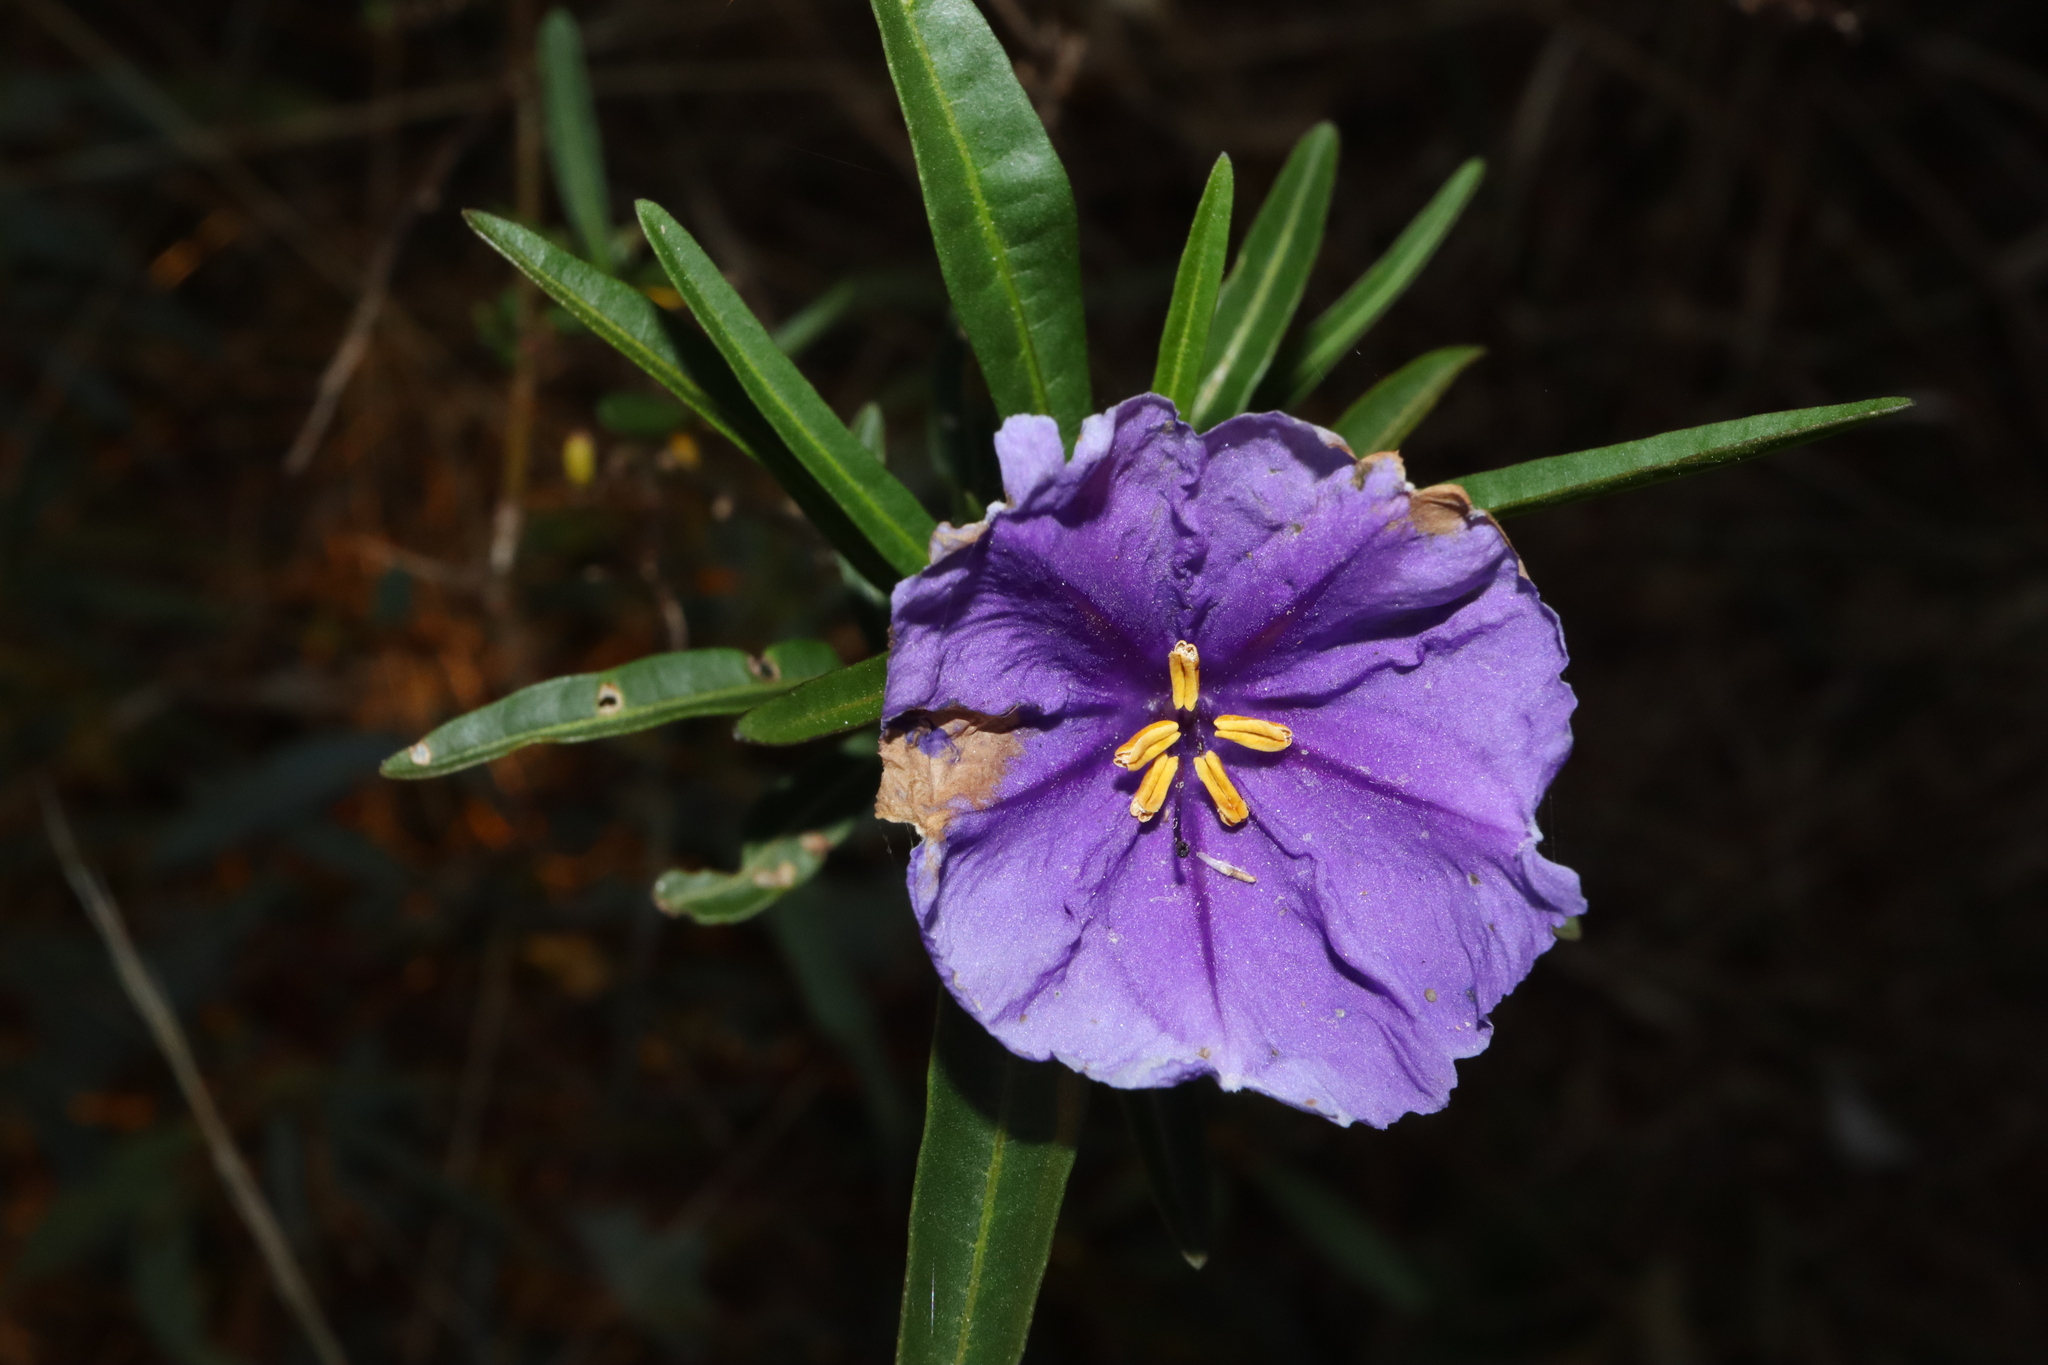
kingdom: Plantae
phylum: Tracheophyta
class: Magnoliopsida
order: Solanales
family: Solanaceae
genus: Solanum
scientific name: Solanum linearifolium
